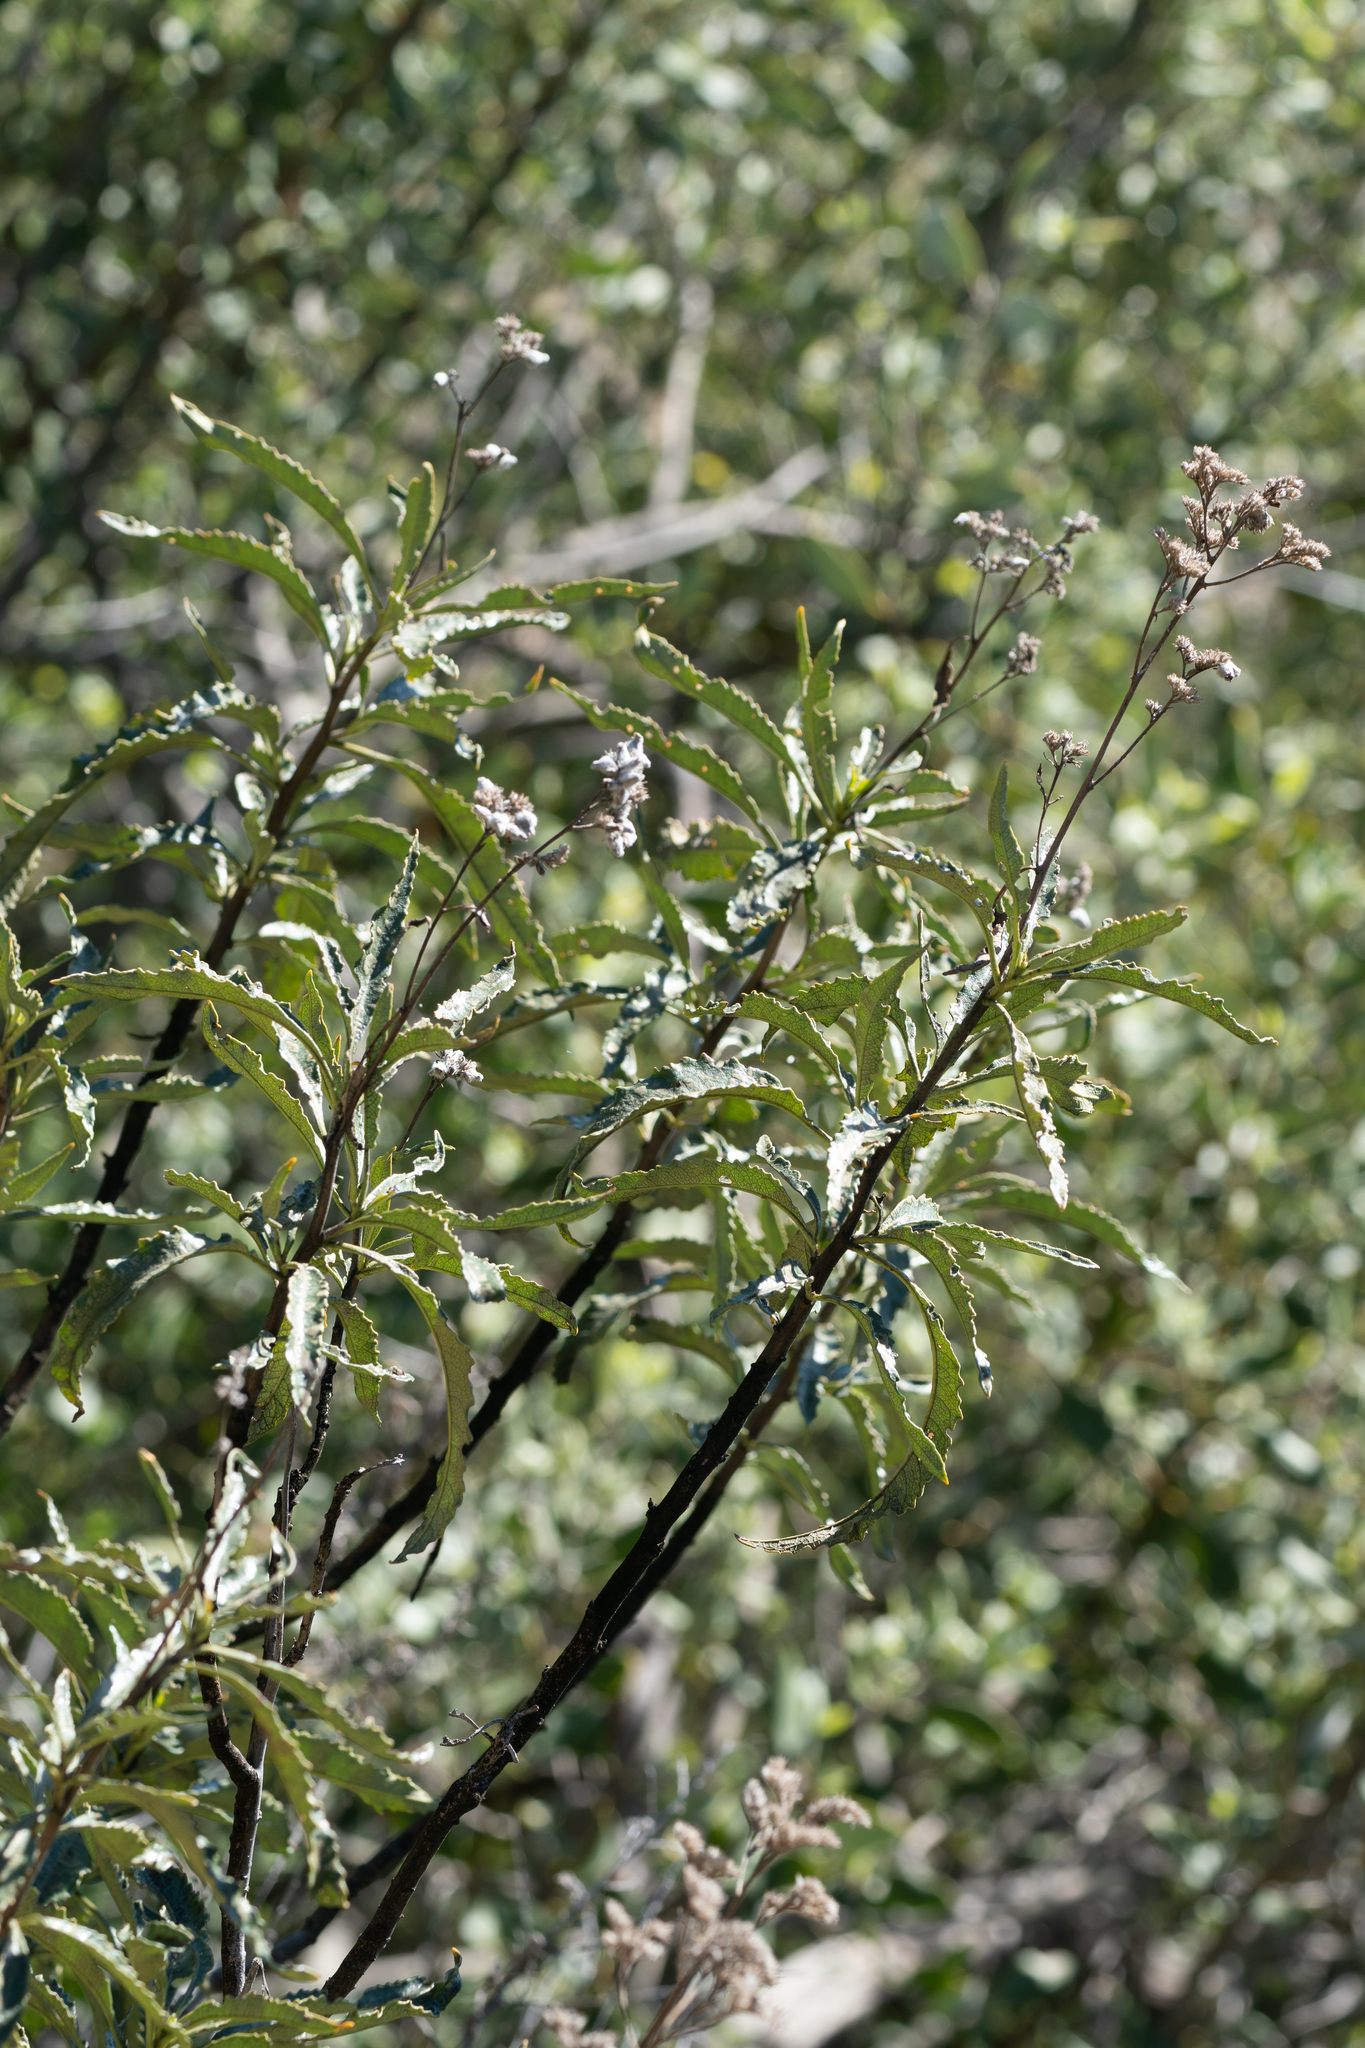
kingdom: Plantae
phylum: Tracheophyta
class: Magnoliopsida
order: Boraginales
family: Namaceae
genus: Eriodictyon
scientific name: Eriodictyon trichocalyx
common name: Hairy yerba-santa
